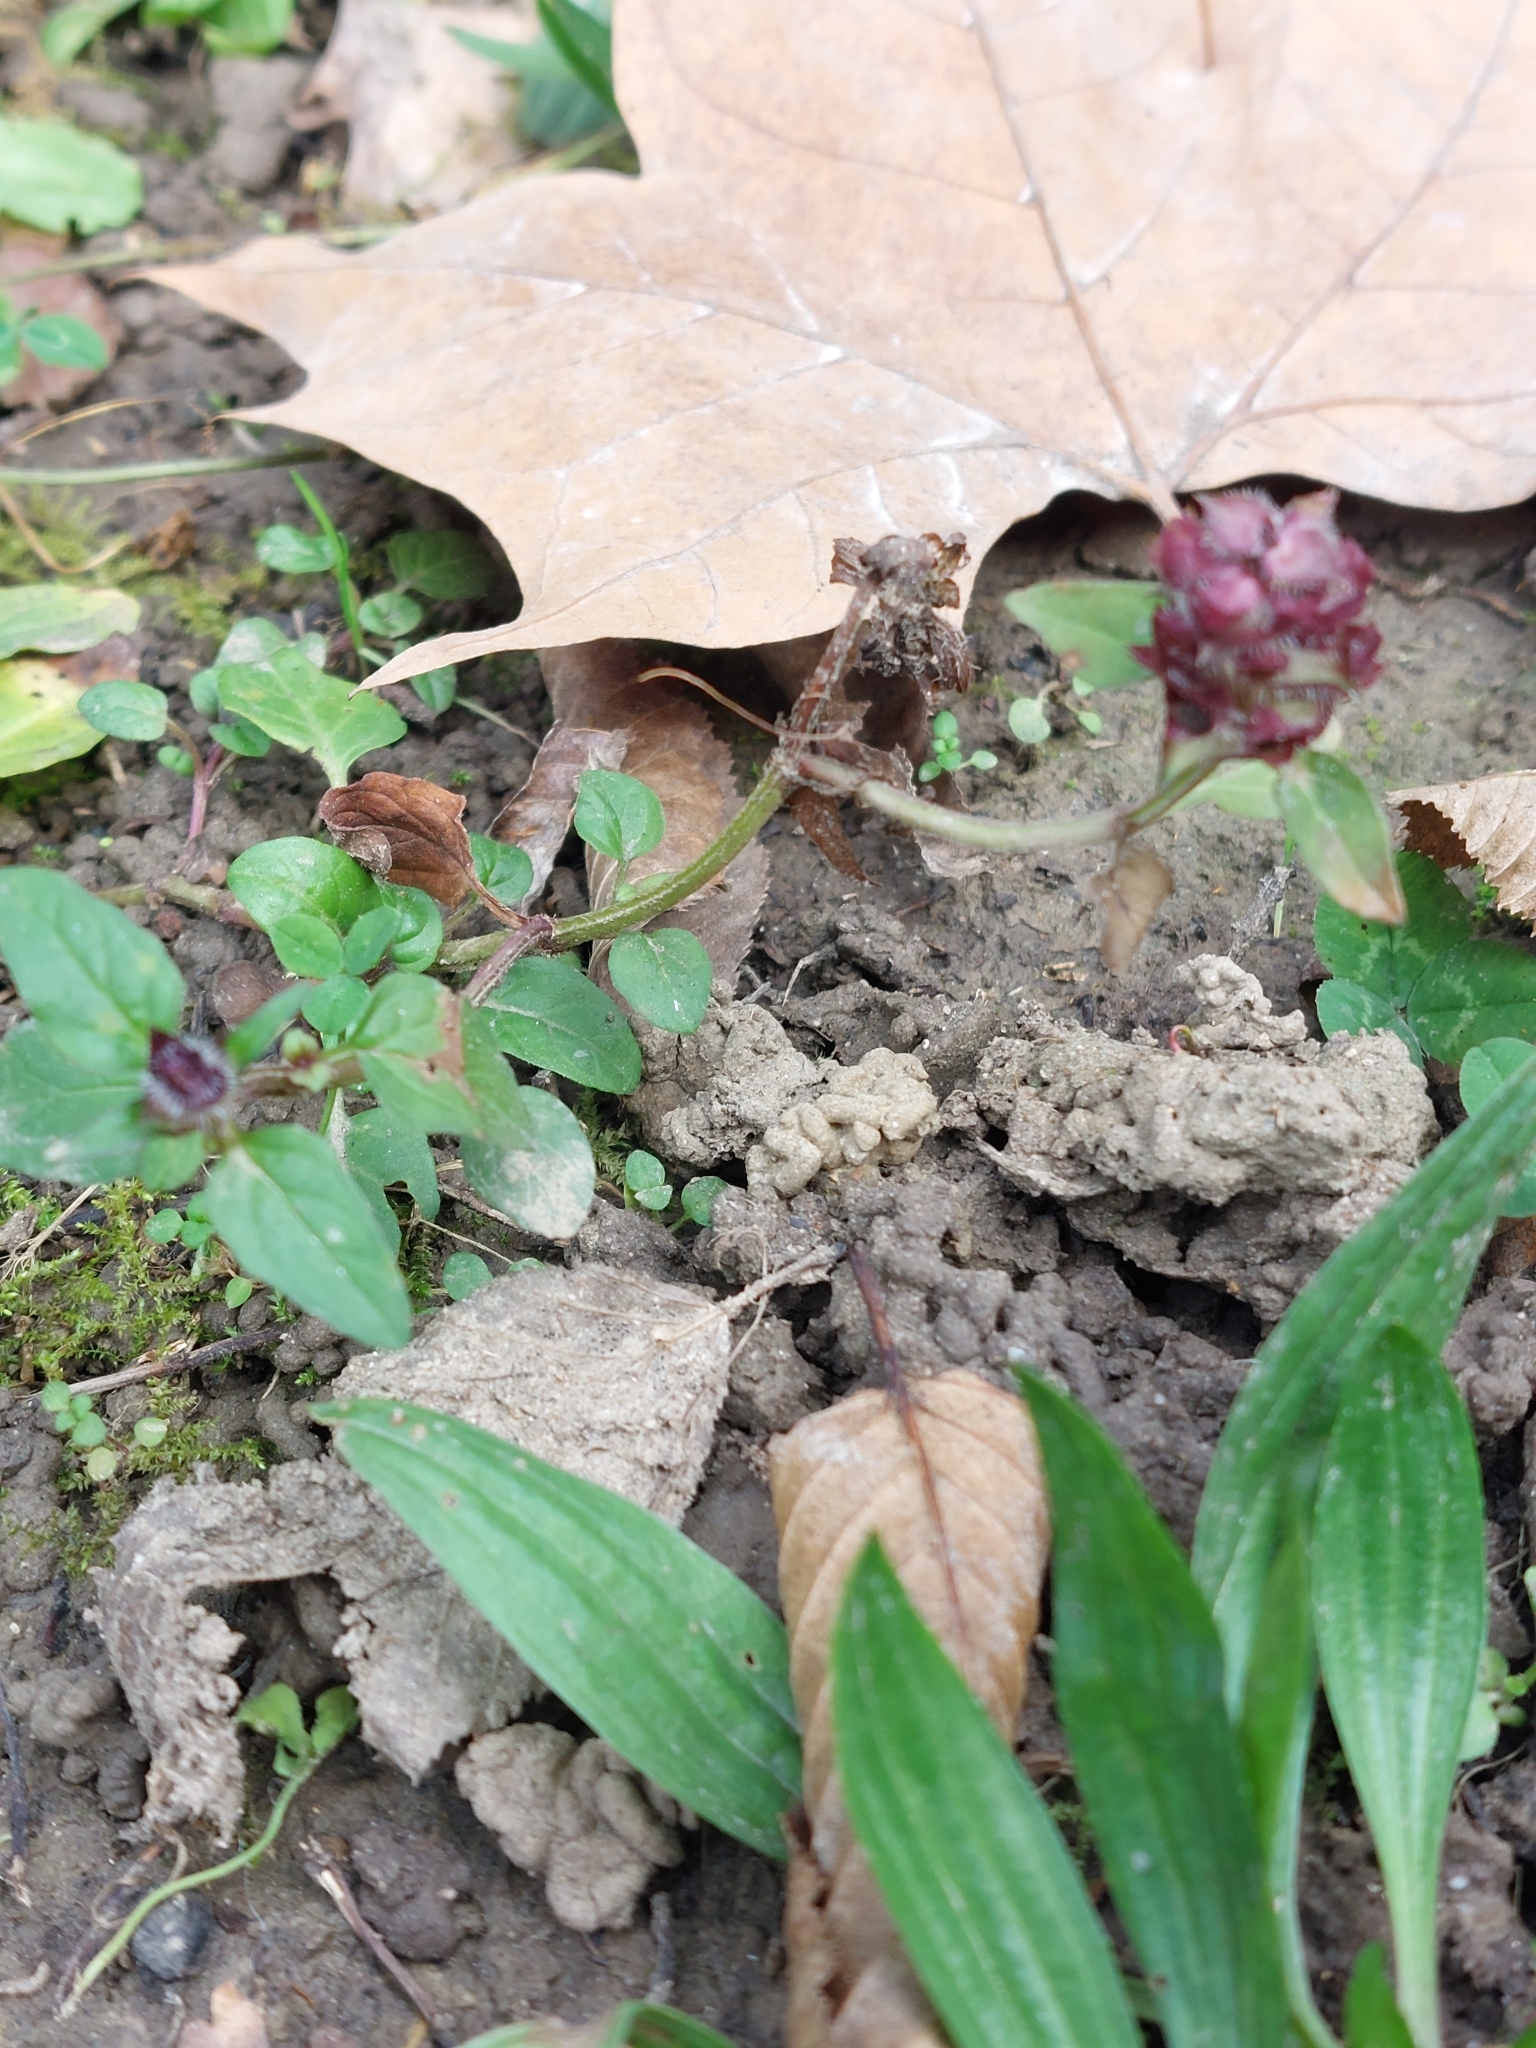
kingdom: Plantae
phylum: Tracheophyta
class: Magnoliopsida
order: Lamiales
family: Lamiaceae
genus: Prunella
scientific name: Prunella vulgaris
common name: Heal-all
